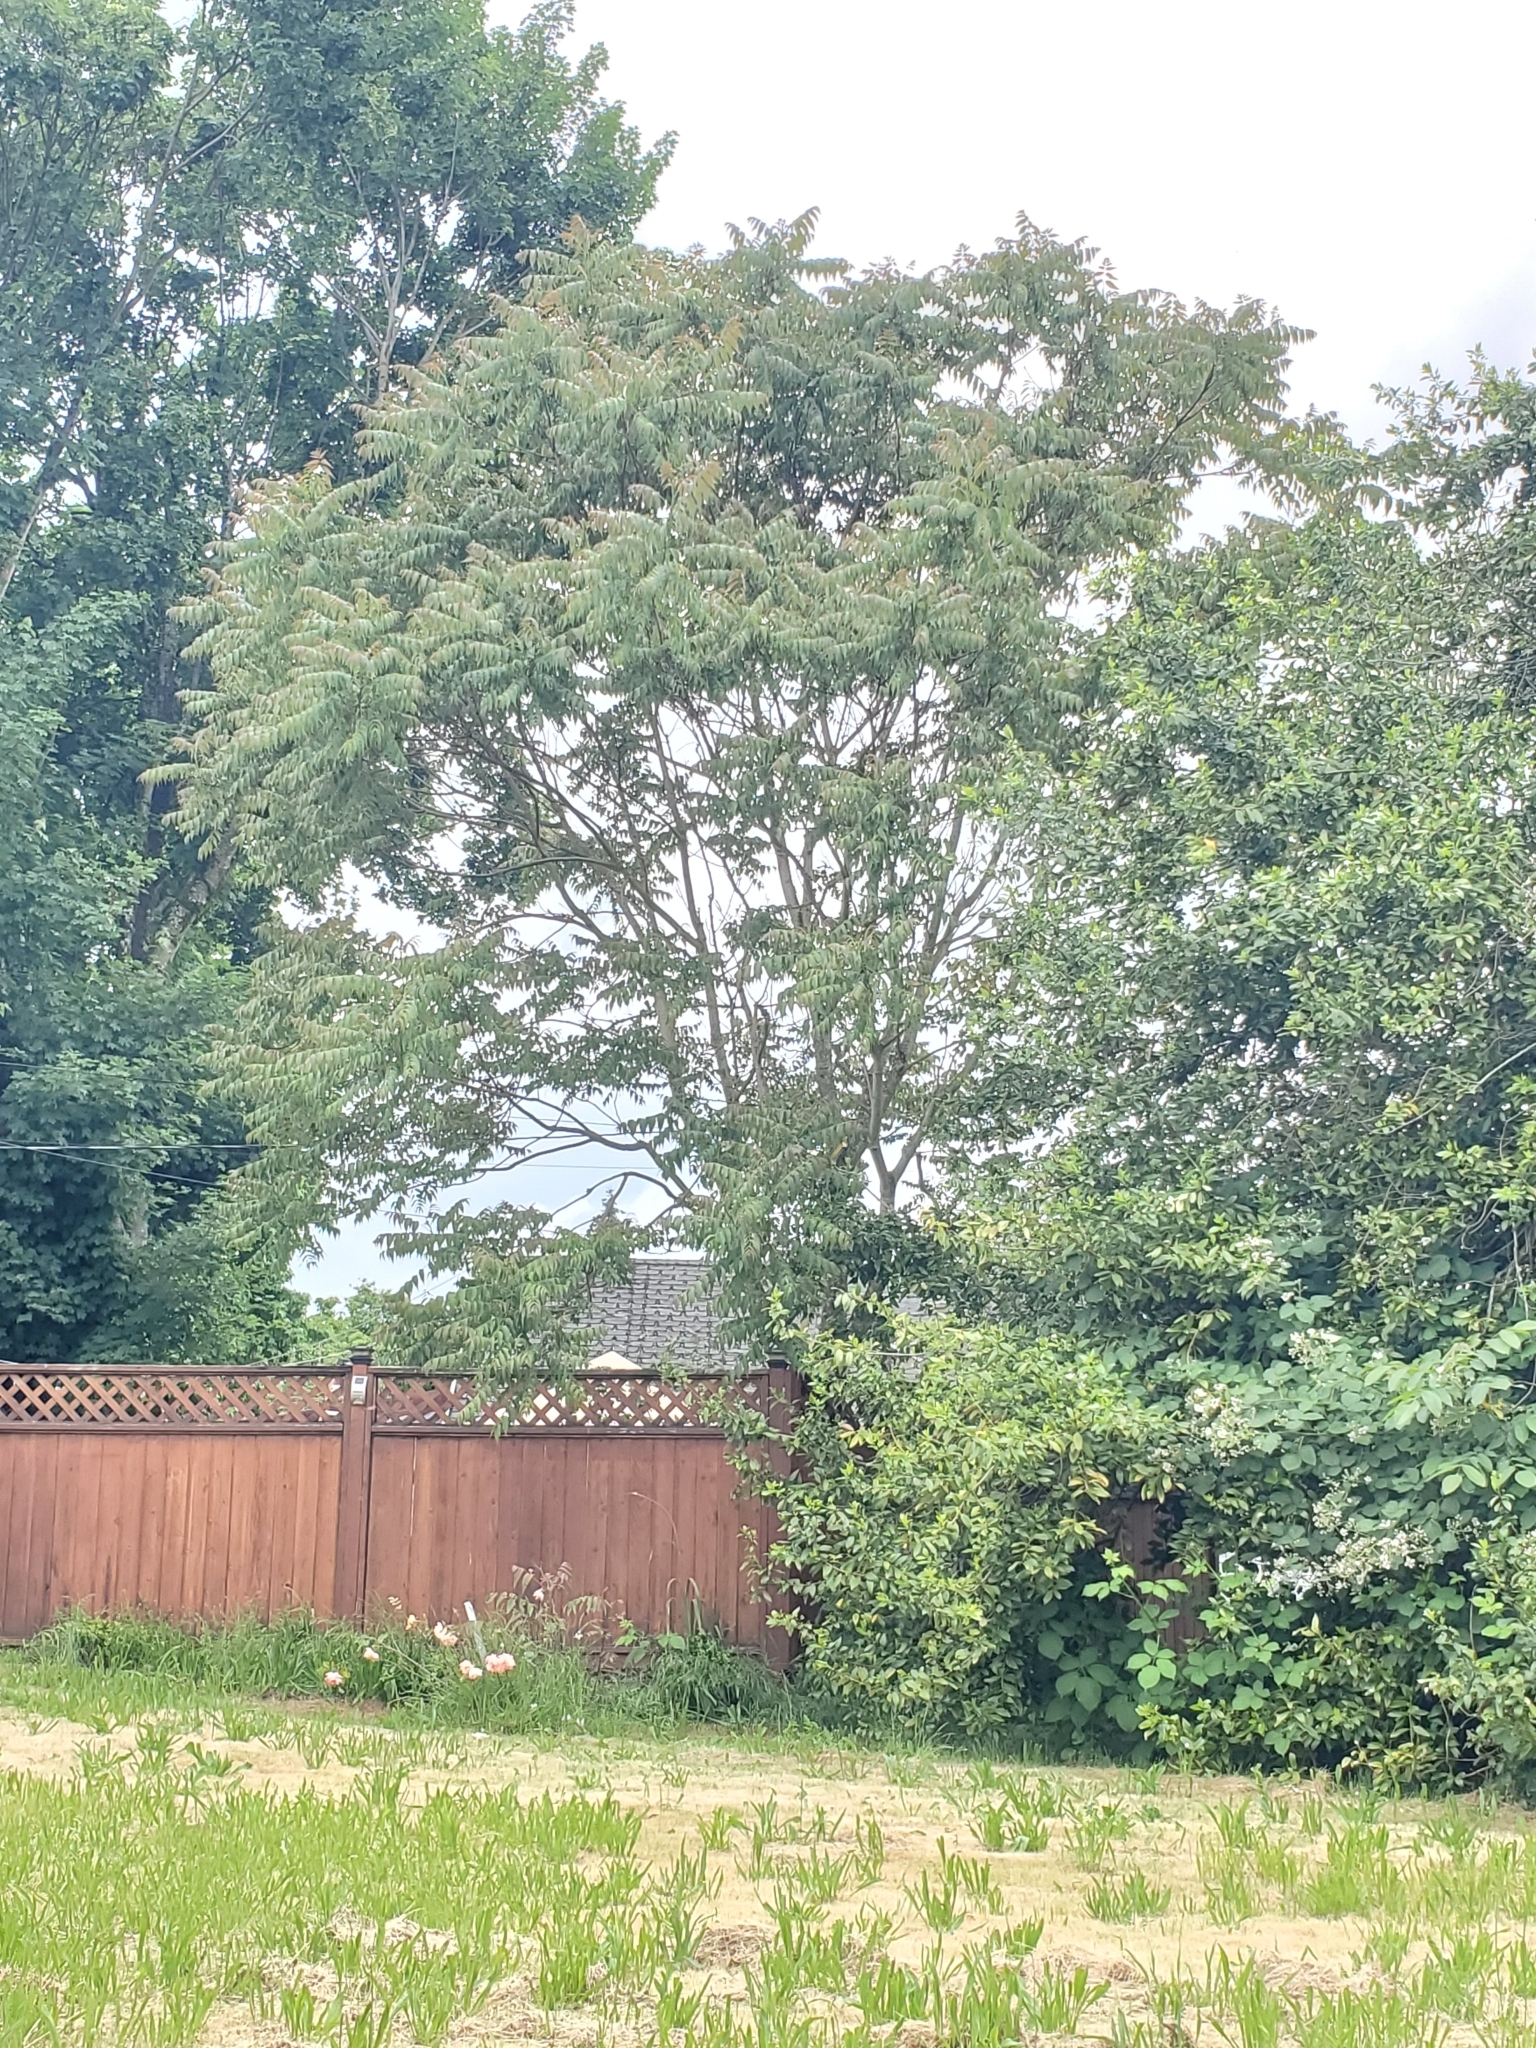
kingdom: Plantae
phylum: Tracheophyta
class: Magnoliopsida
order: Sapindales
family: Simaroubaceae
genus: Ailanthus
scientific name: Ailanthus altissima
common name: Tree-of-heaven
